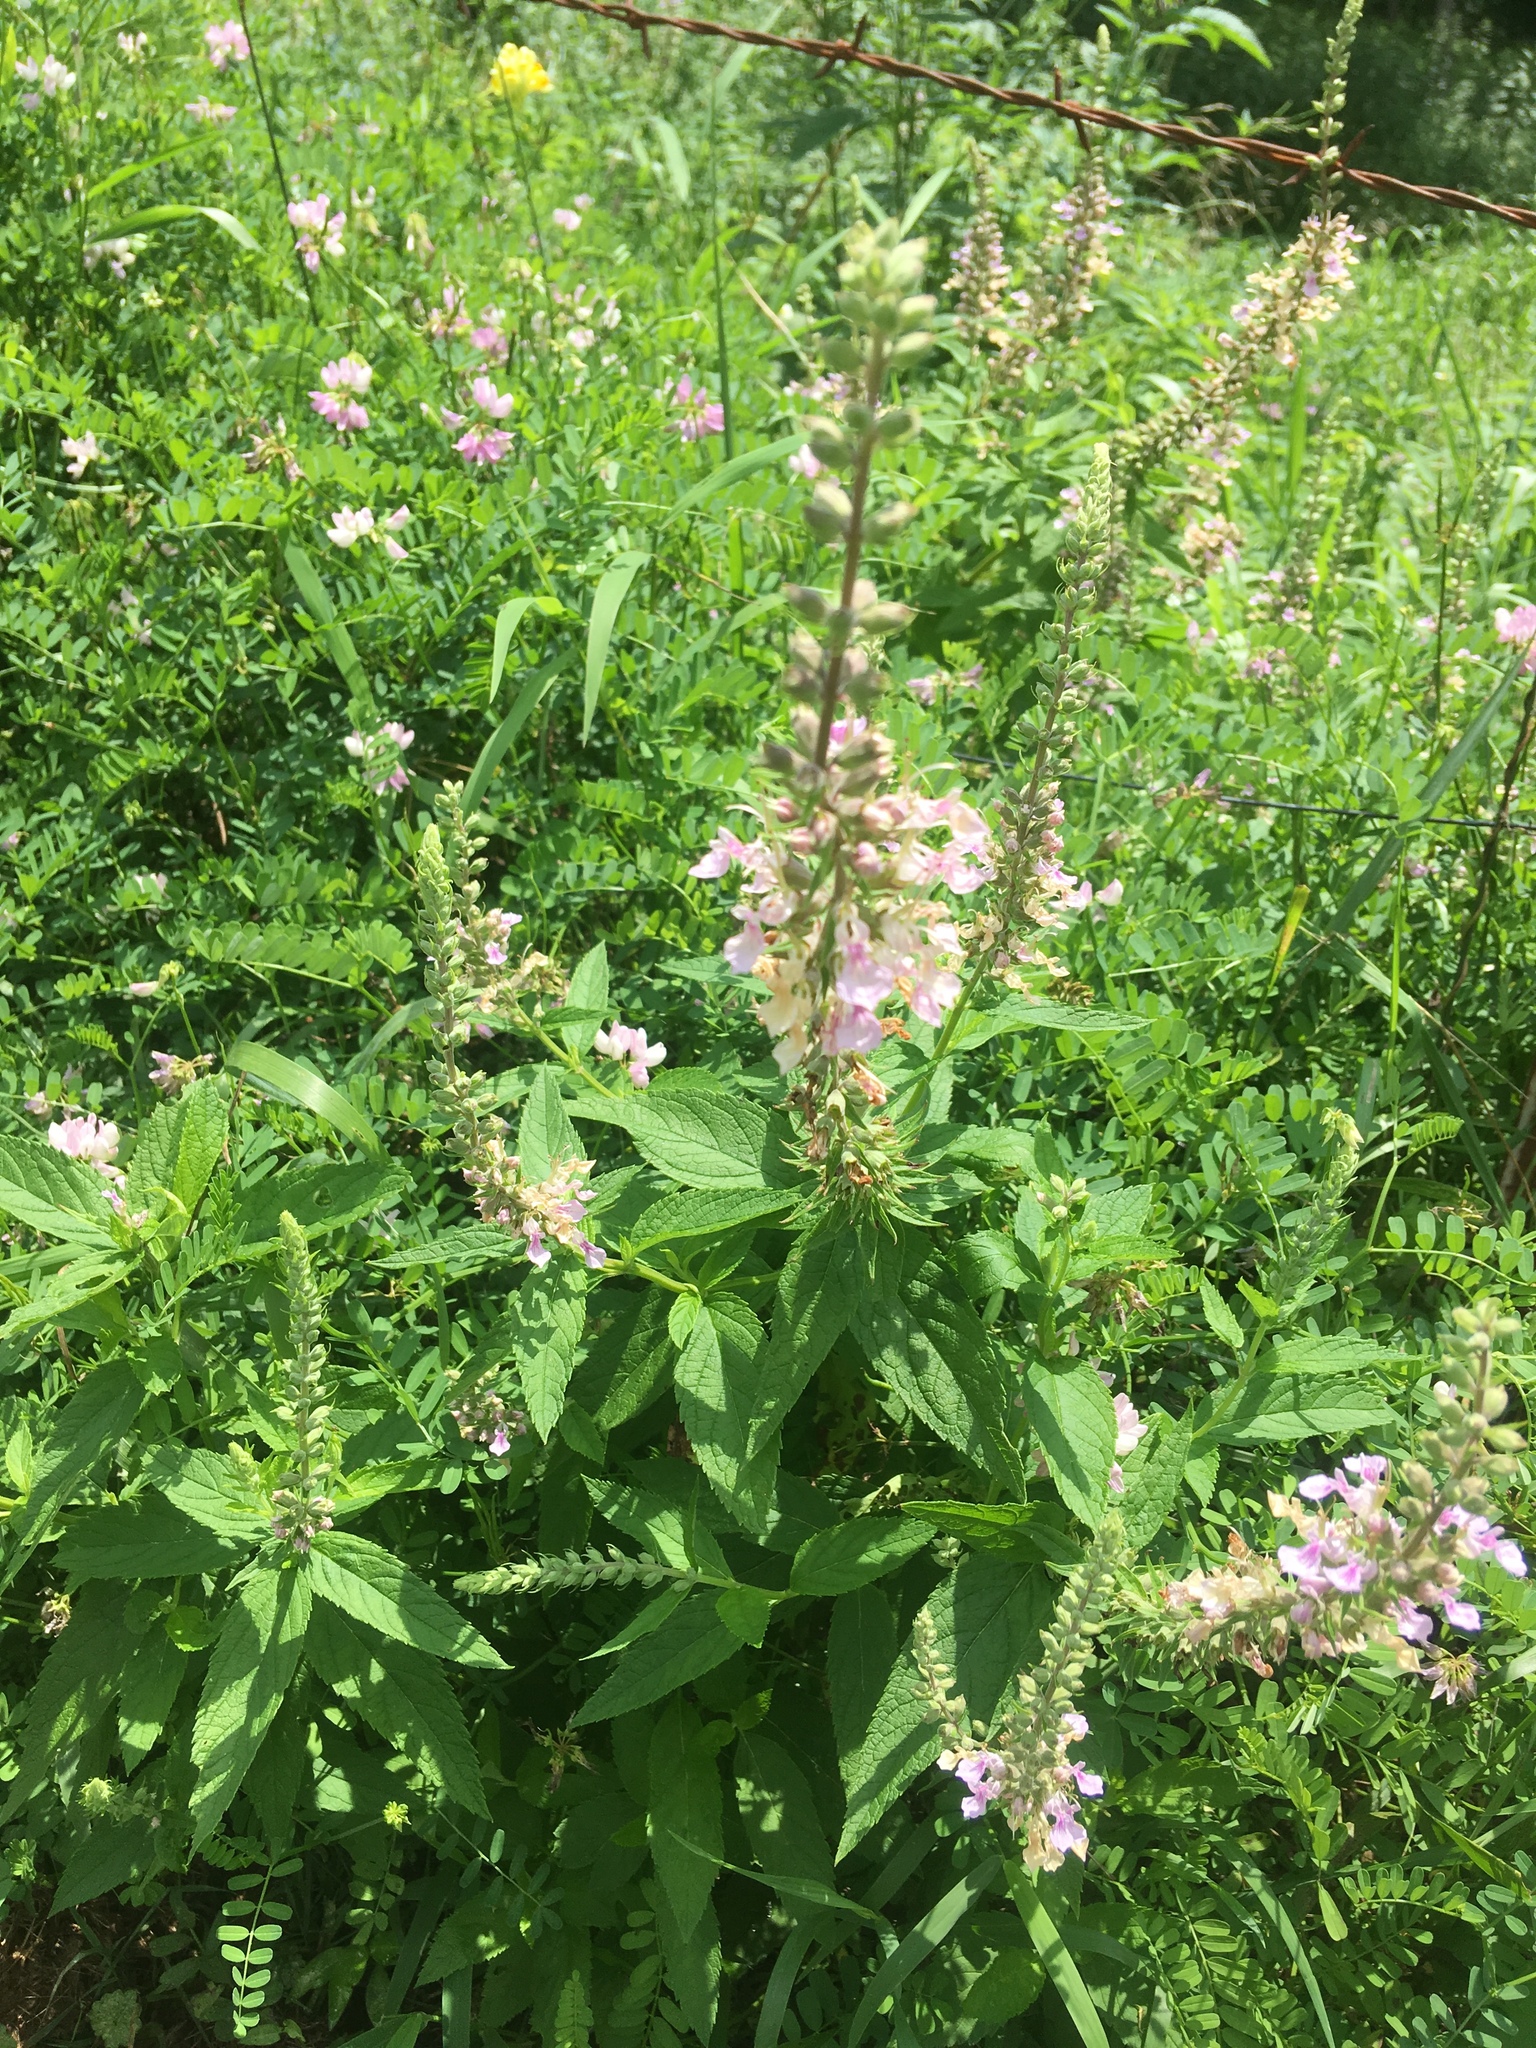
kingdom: Plantae
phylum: Tracheophyta
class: Magnoliopsida
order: Lamiales
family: Lamiaceae
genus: Teucrium
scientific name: Teucrium canadense
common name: American germander
